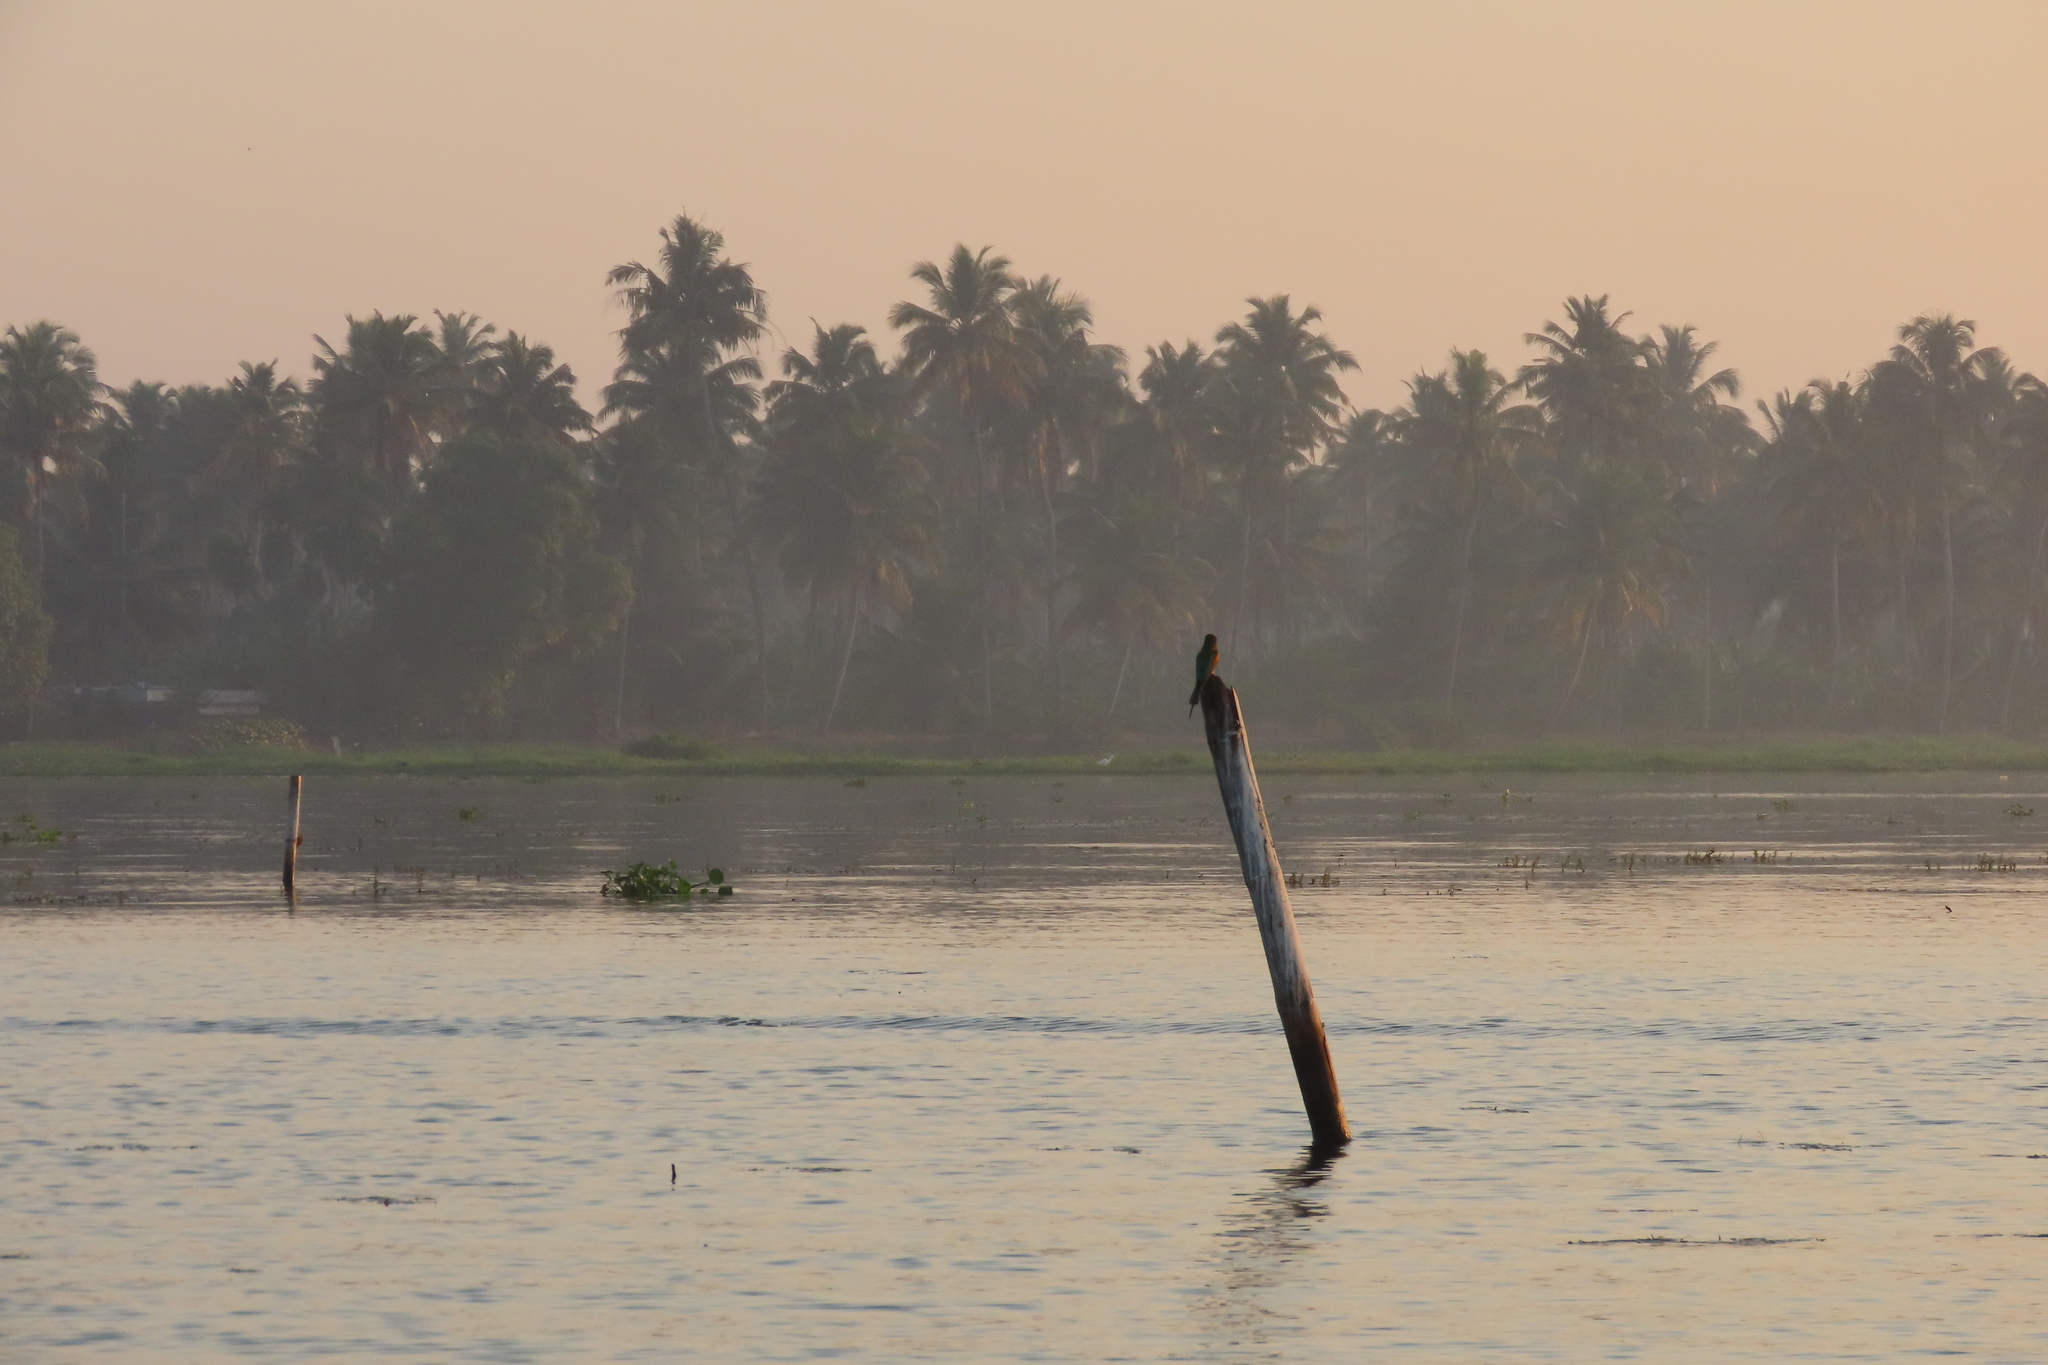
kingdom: Animalia
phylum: Chordata
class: Aves
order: Coraciiformes
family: Meropidae
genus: Merops
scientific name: Merops philippinus
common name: Blue-tailed bee-eater
